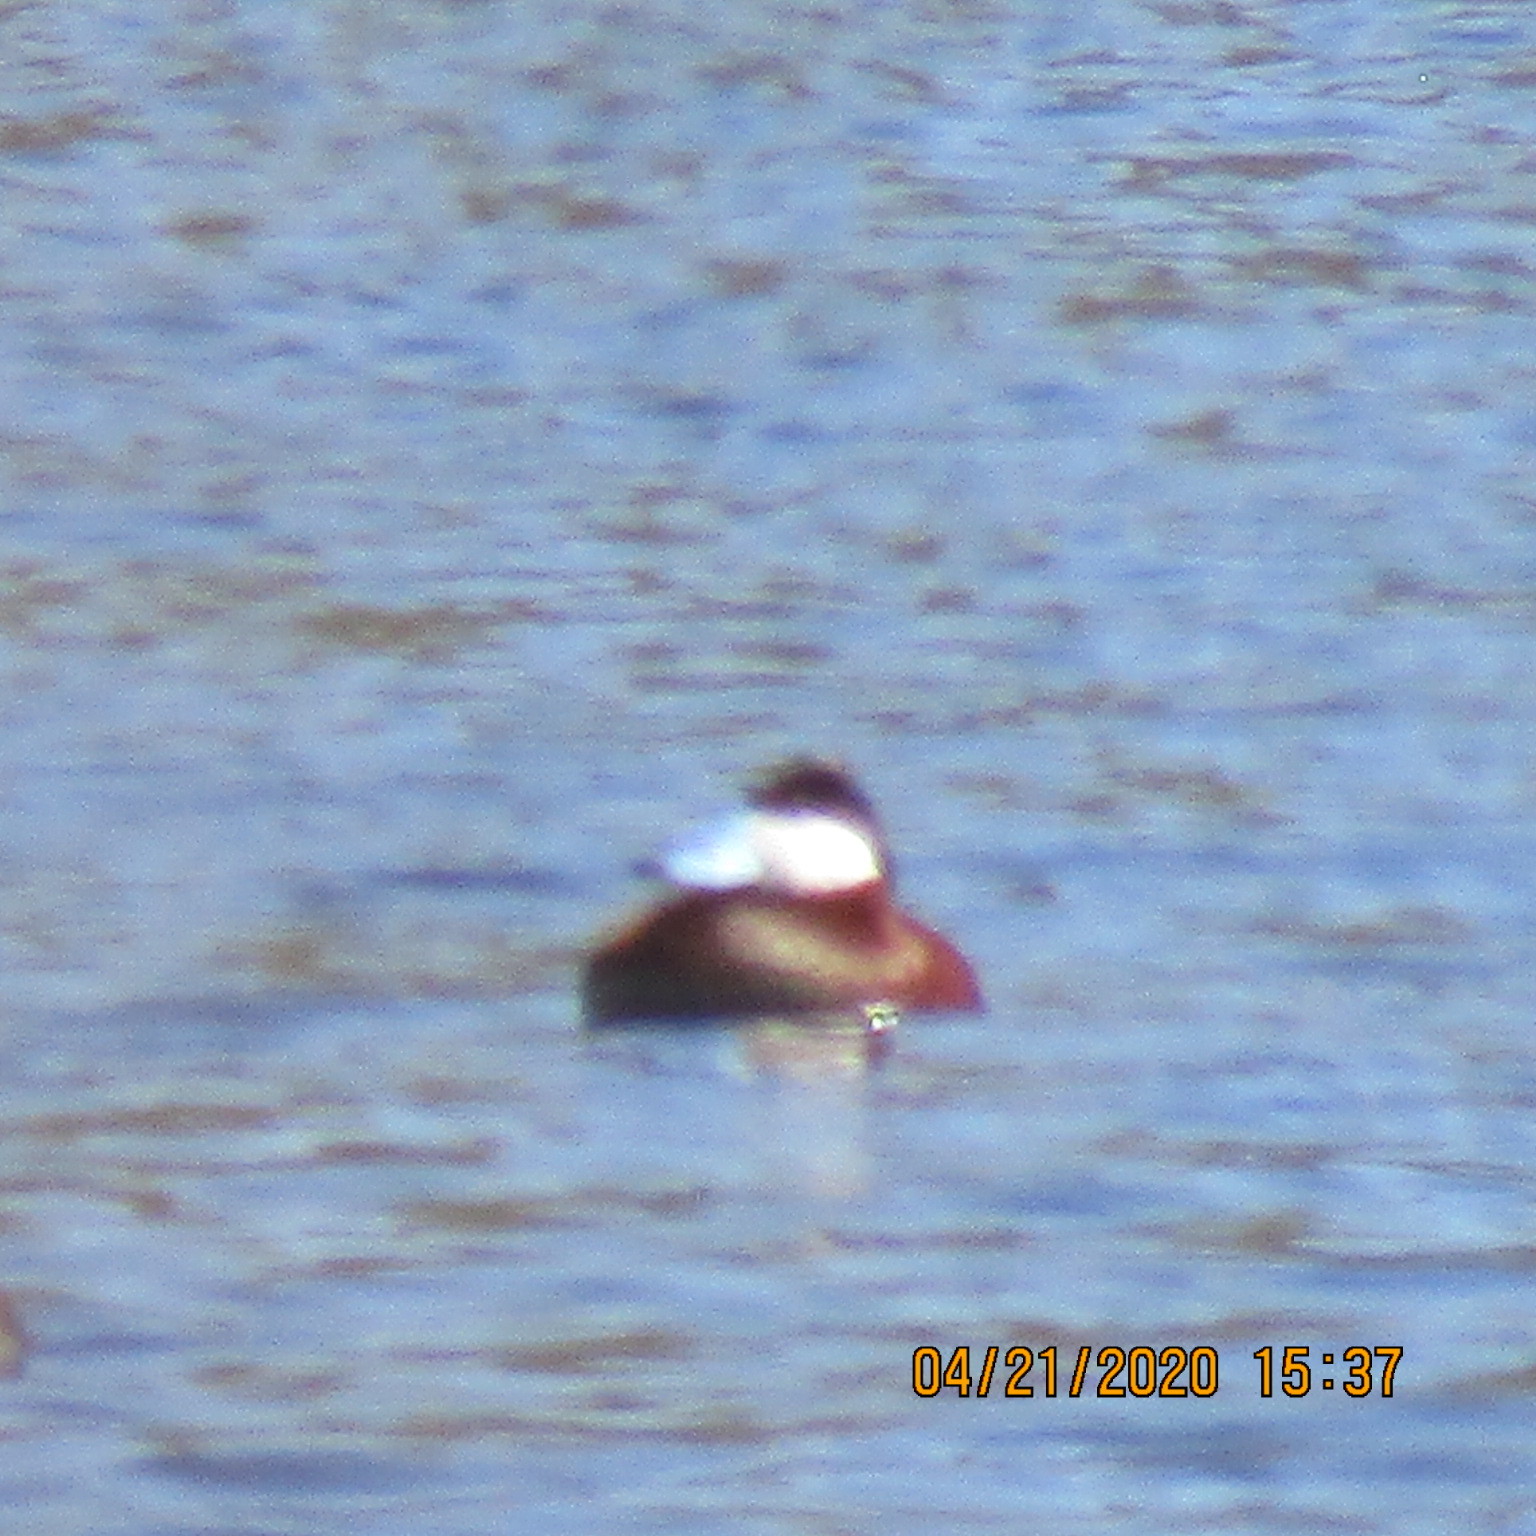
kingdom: Animalia
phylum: Chordata
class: Aves
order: Anseriformes
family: Anatidae
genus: Oxyura
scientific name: Oxyura jamaicensis
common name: Ruddy duck
